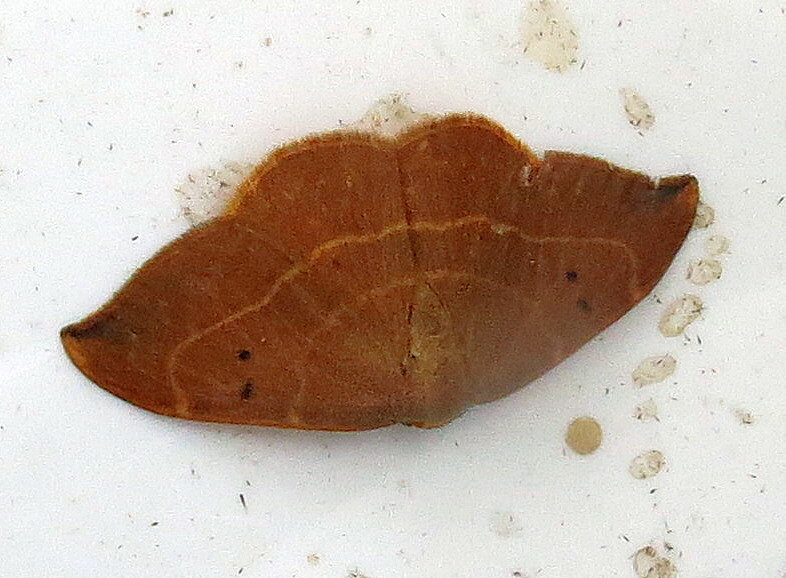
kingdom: Animalia
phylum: Arthropoda
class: Insecta
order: Lepidoptera
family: Drepanidae
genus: Watsonalla
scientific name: Watsonalla binaria
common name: Oak hook-tip
